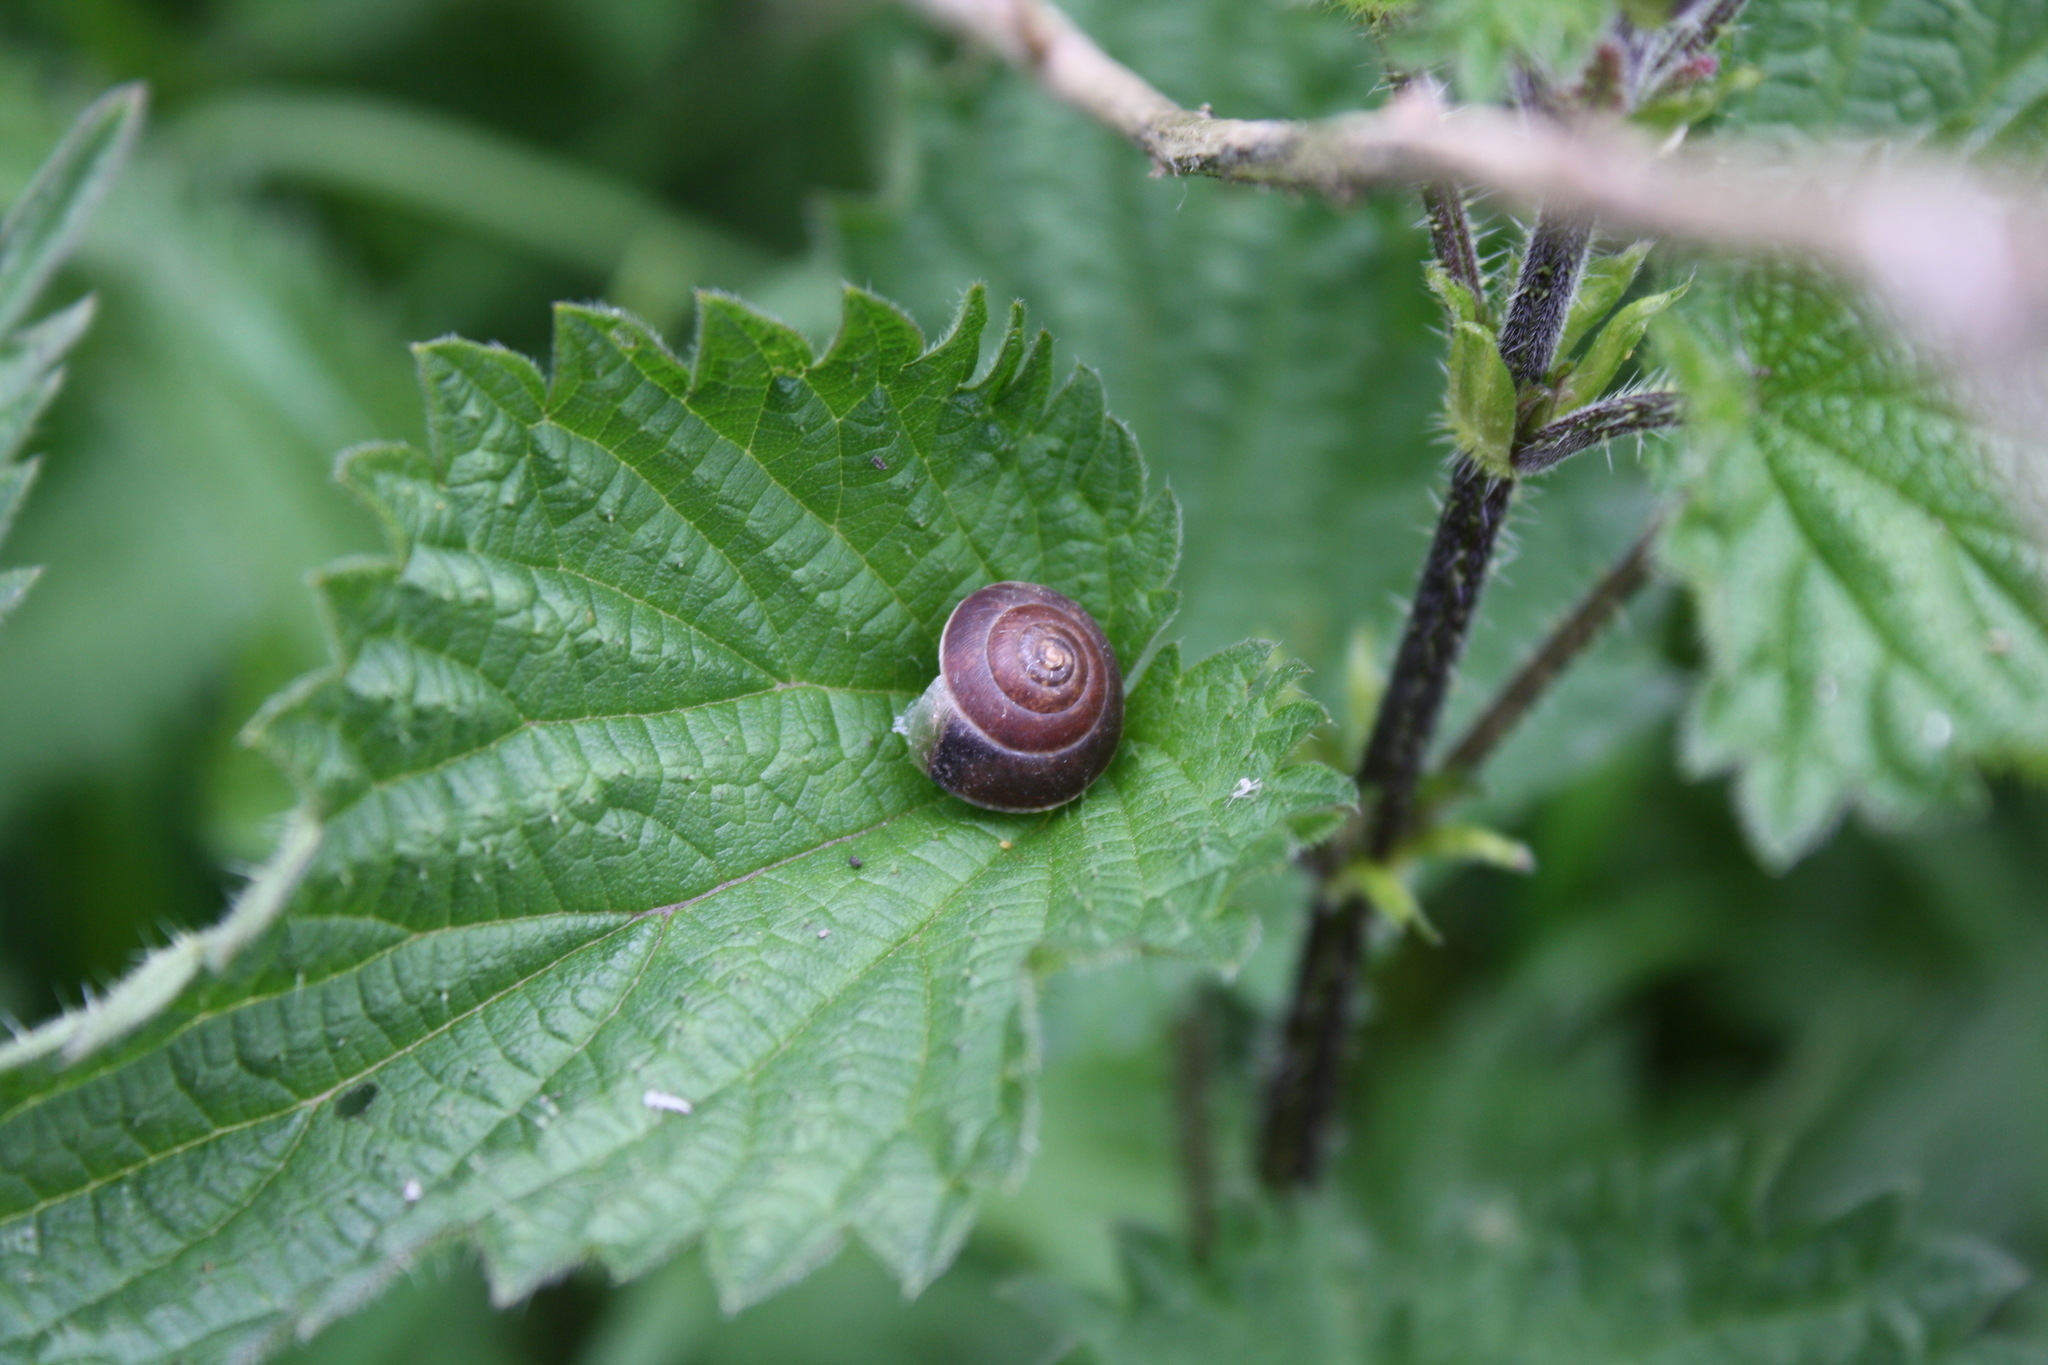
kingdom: Animalia
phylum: Mollusca
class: Gastropoda
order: Stylommatophora
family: Hygromiidae
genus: Hygromia
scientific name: Hygromia cinctella
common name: Girdled snail
